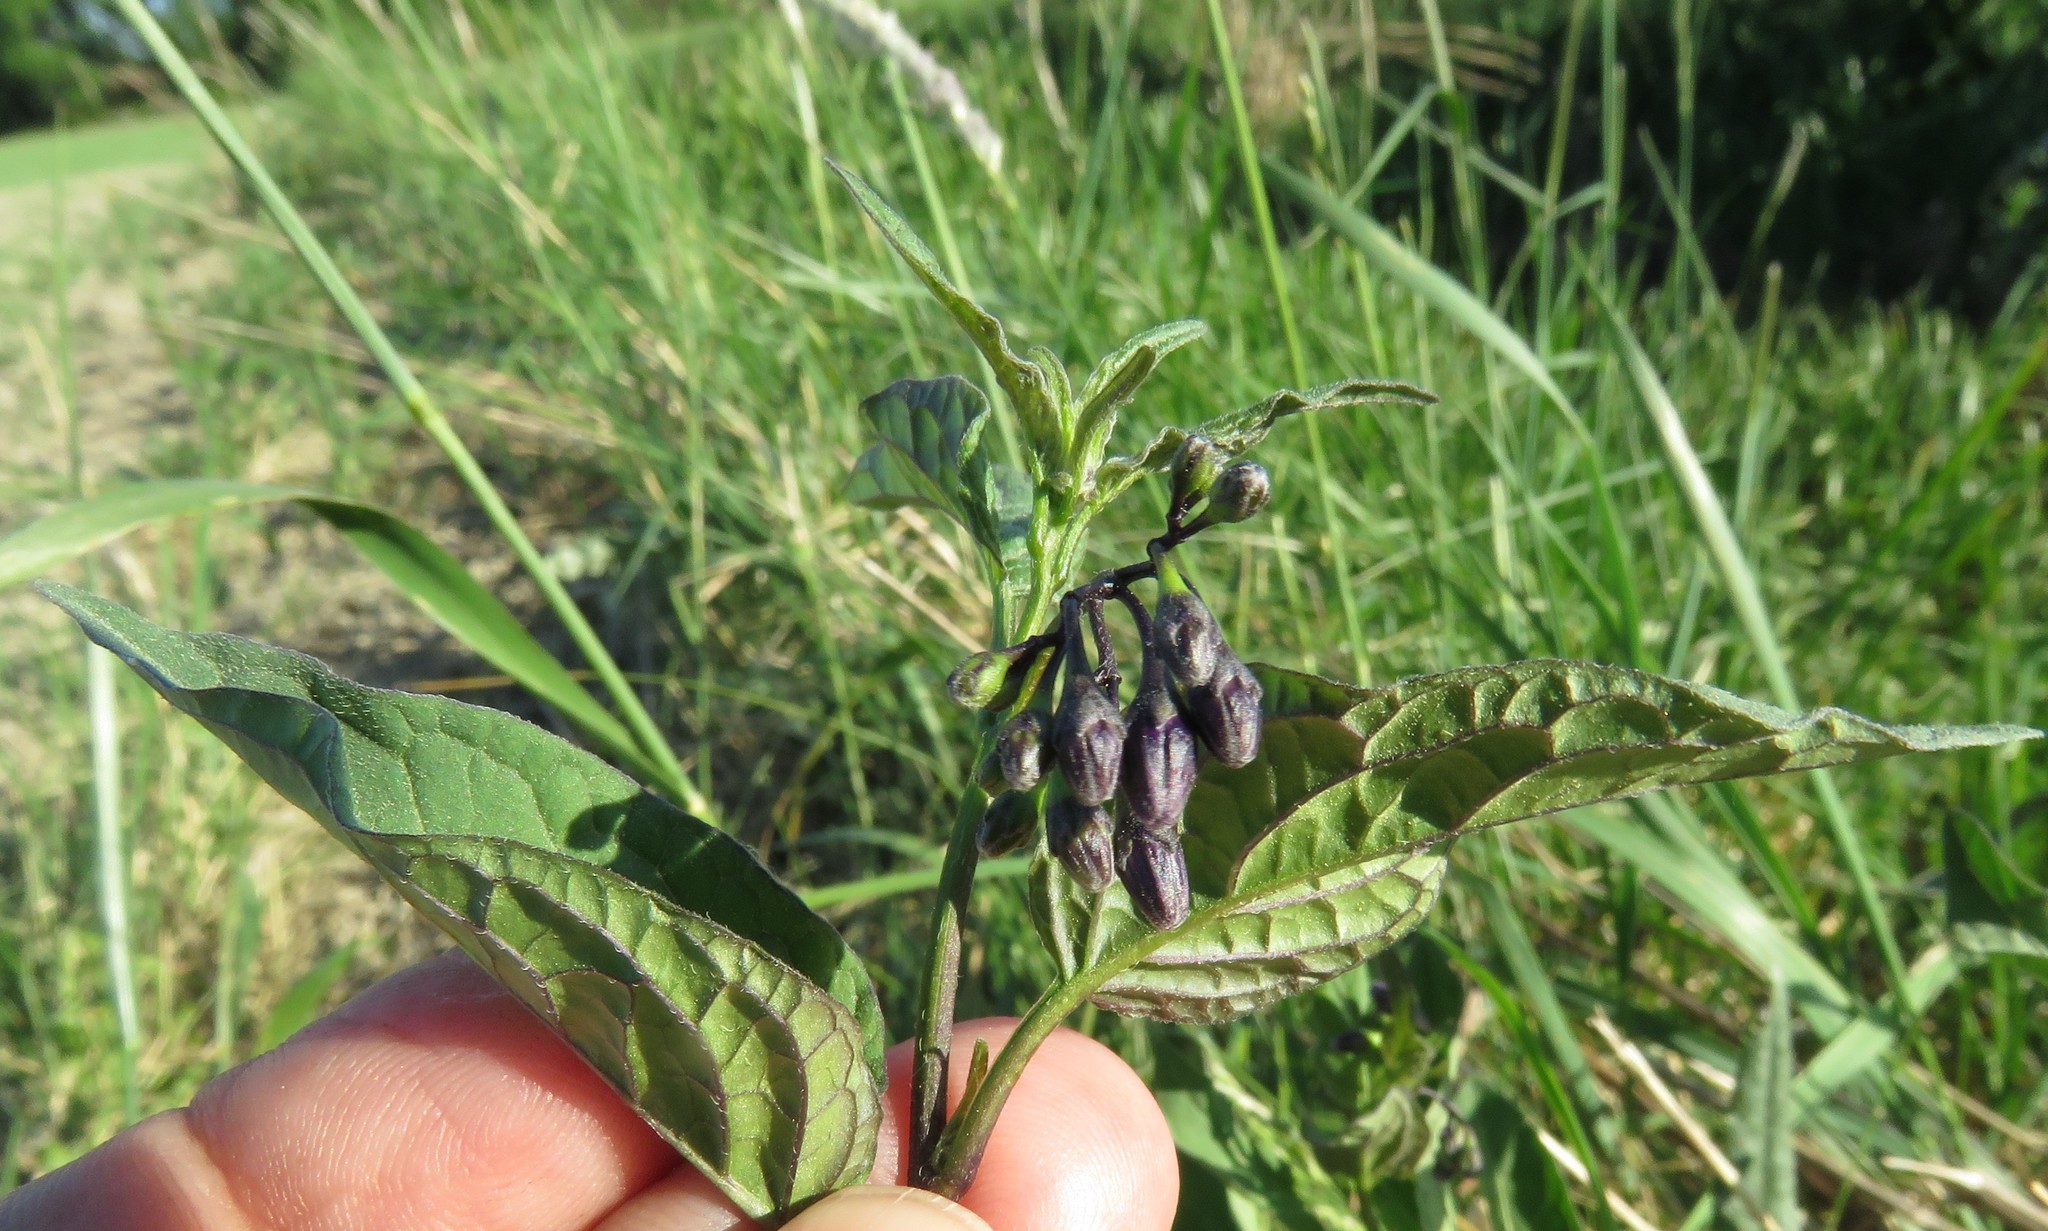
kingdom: Plantae
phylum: Tracheophyta
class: Magnoliopsida
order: Solanales
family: Solanaceae
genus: Solanum
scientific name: Solanum dulcamara
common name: Climbing nightshade
